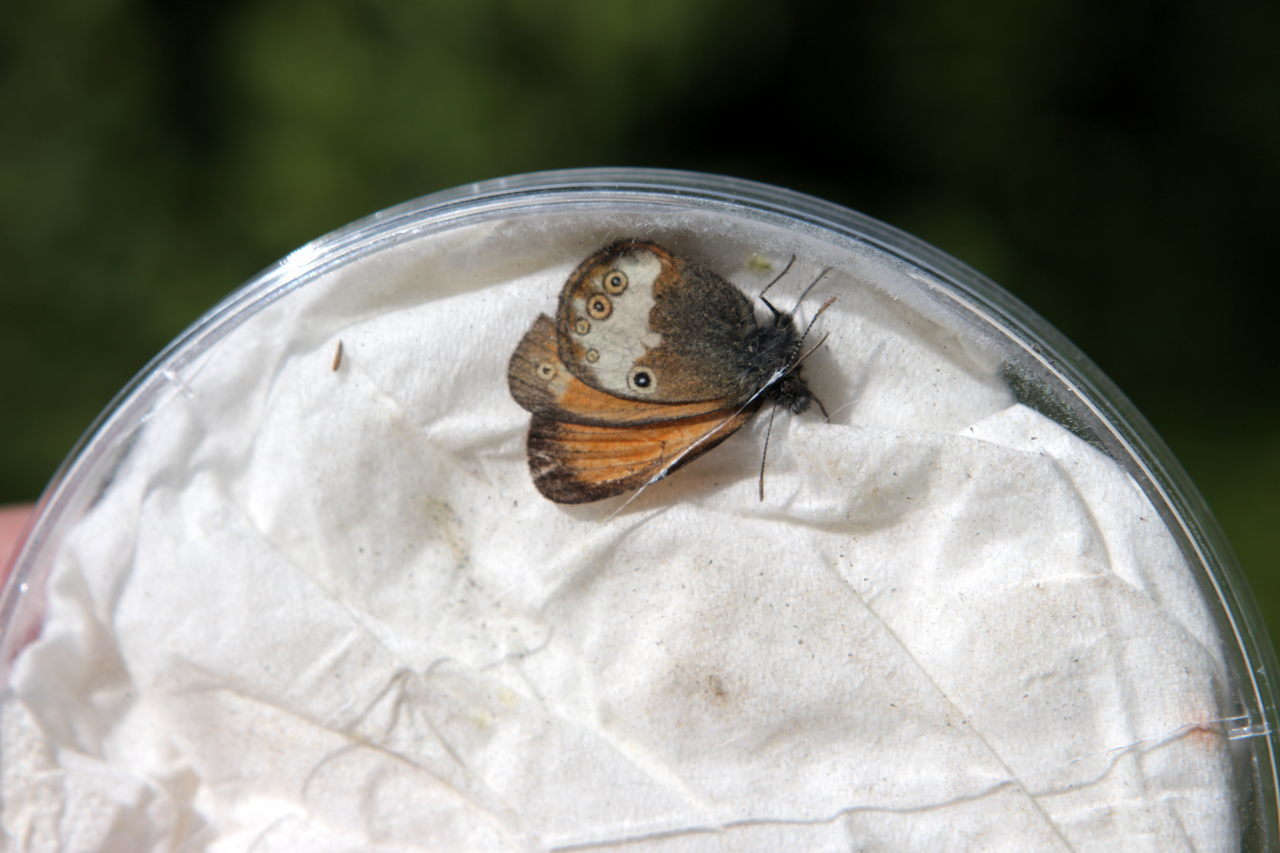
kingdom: Animalia
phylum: Arthropoda
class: Insecta
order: Lepidoptera
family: Nymphalidae
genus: Coenonympha
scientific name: Coenonympha arcania
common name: Pearly heath
